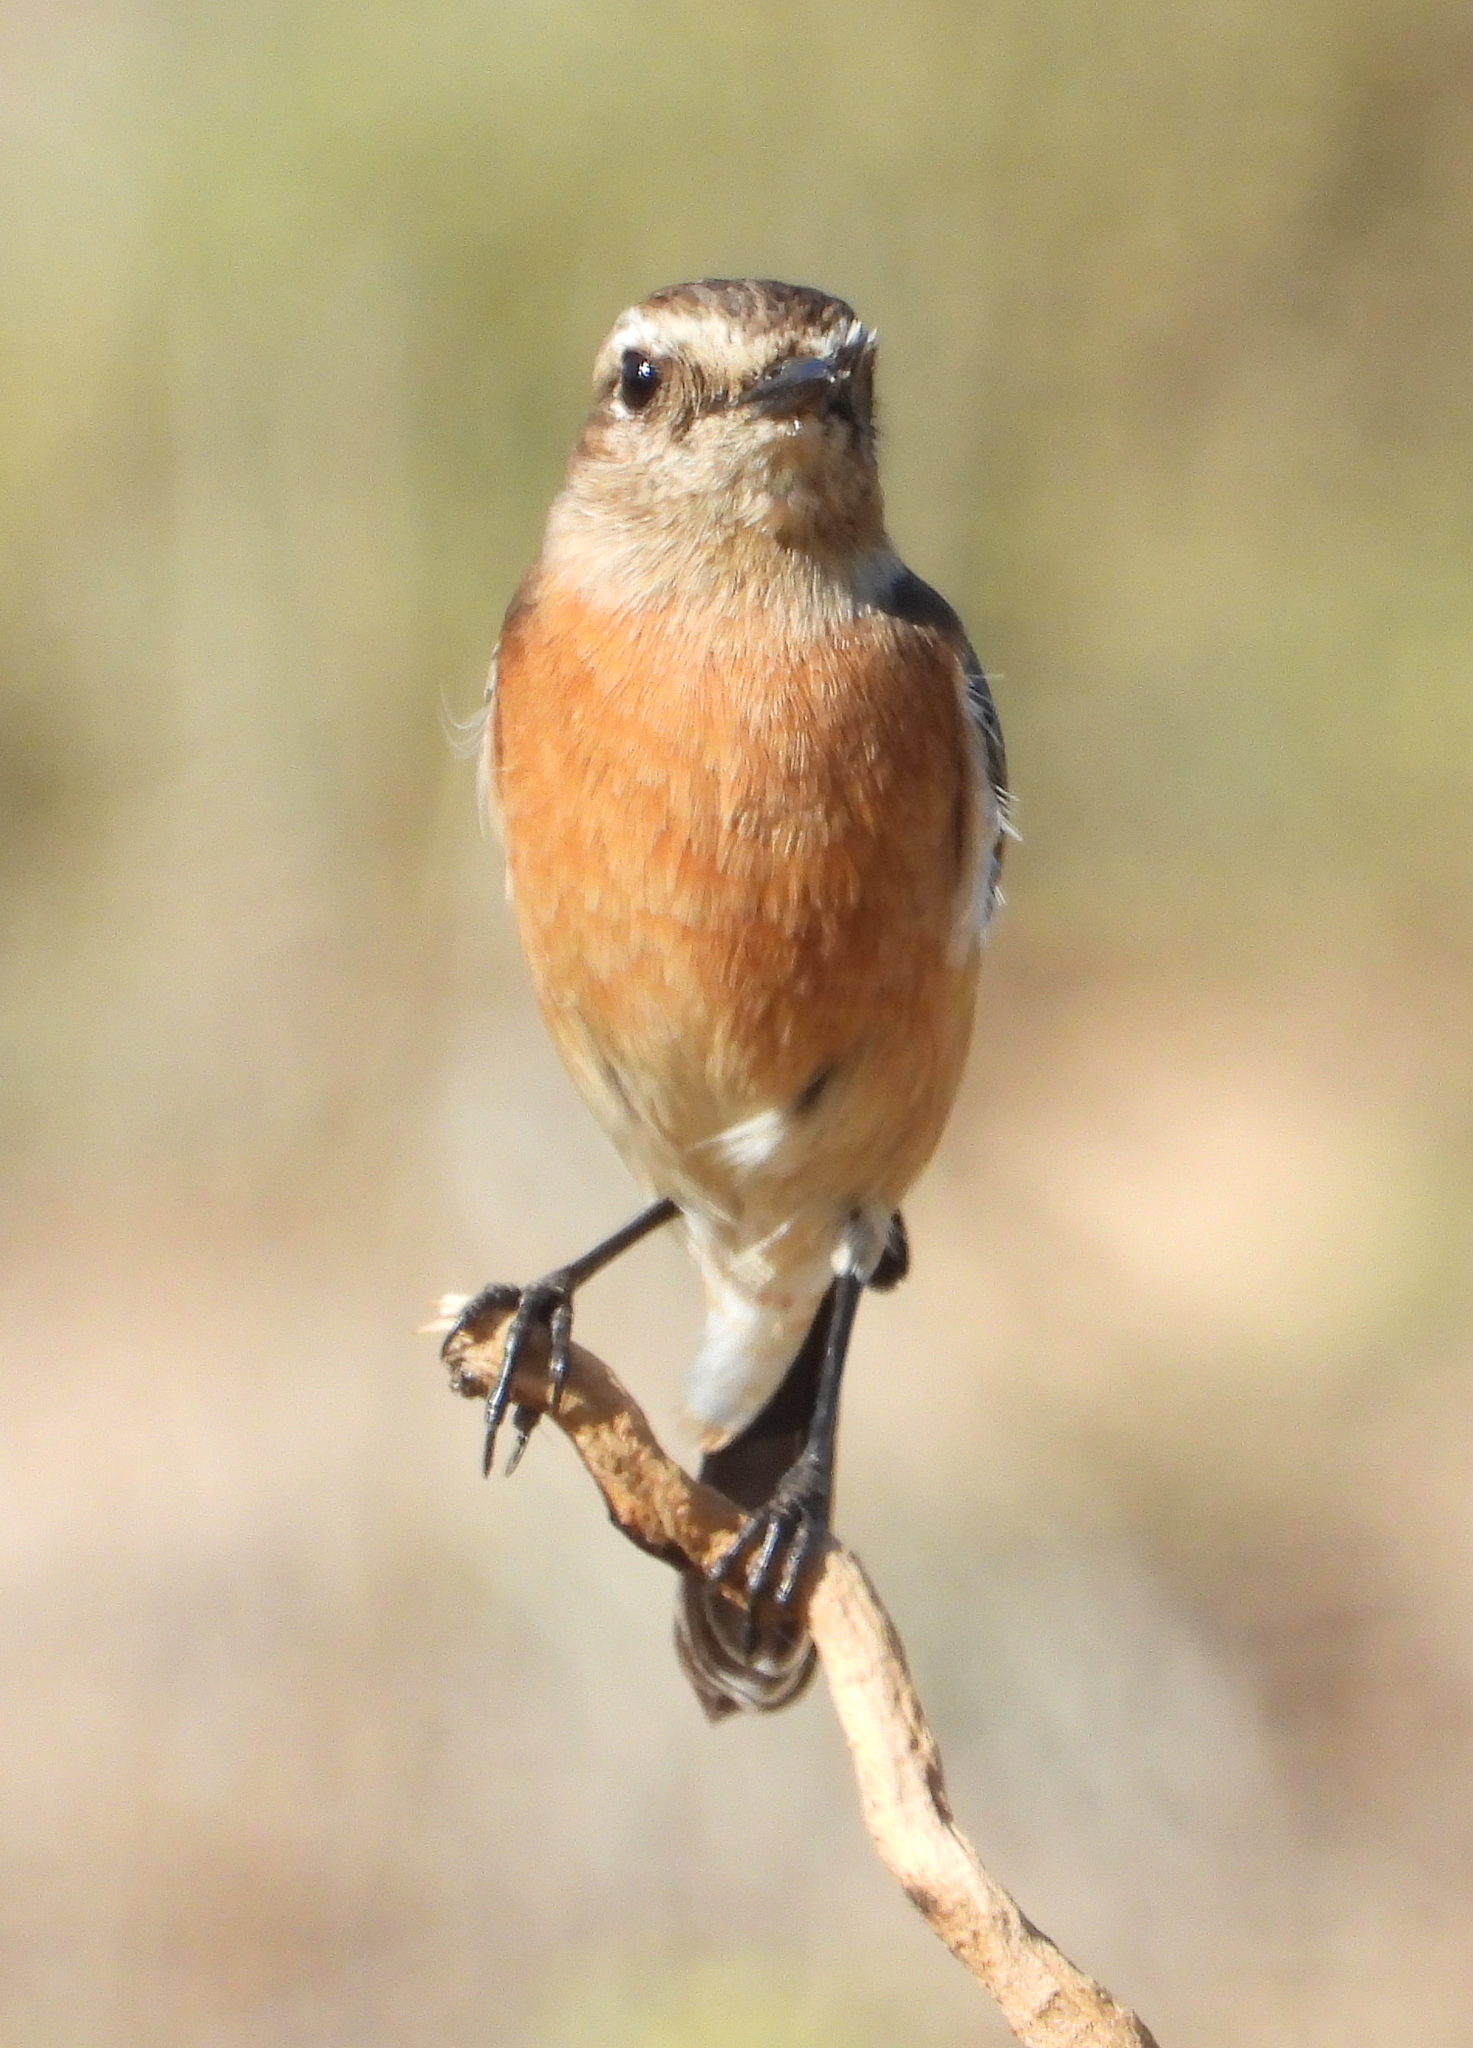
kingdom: Animalia
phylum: Chordata
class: Aves
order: Passeriformes
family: Muscicapidae
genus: Saxicola
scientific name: Saxicola torquatus
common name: African stonechat
